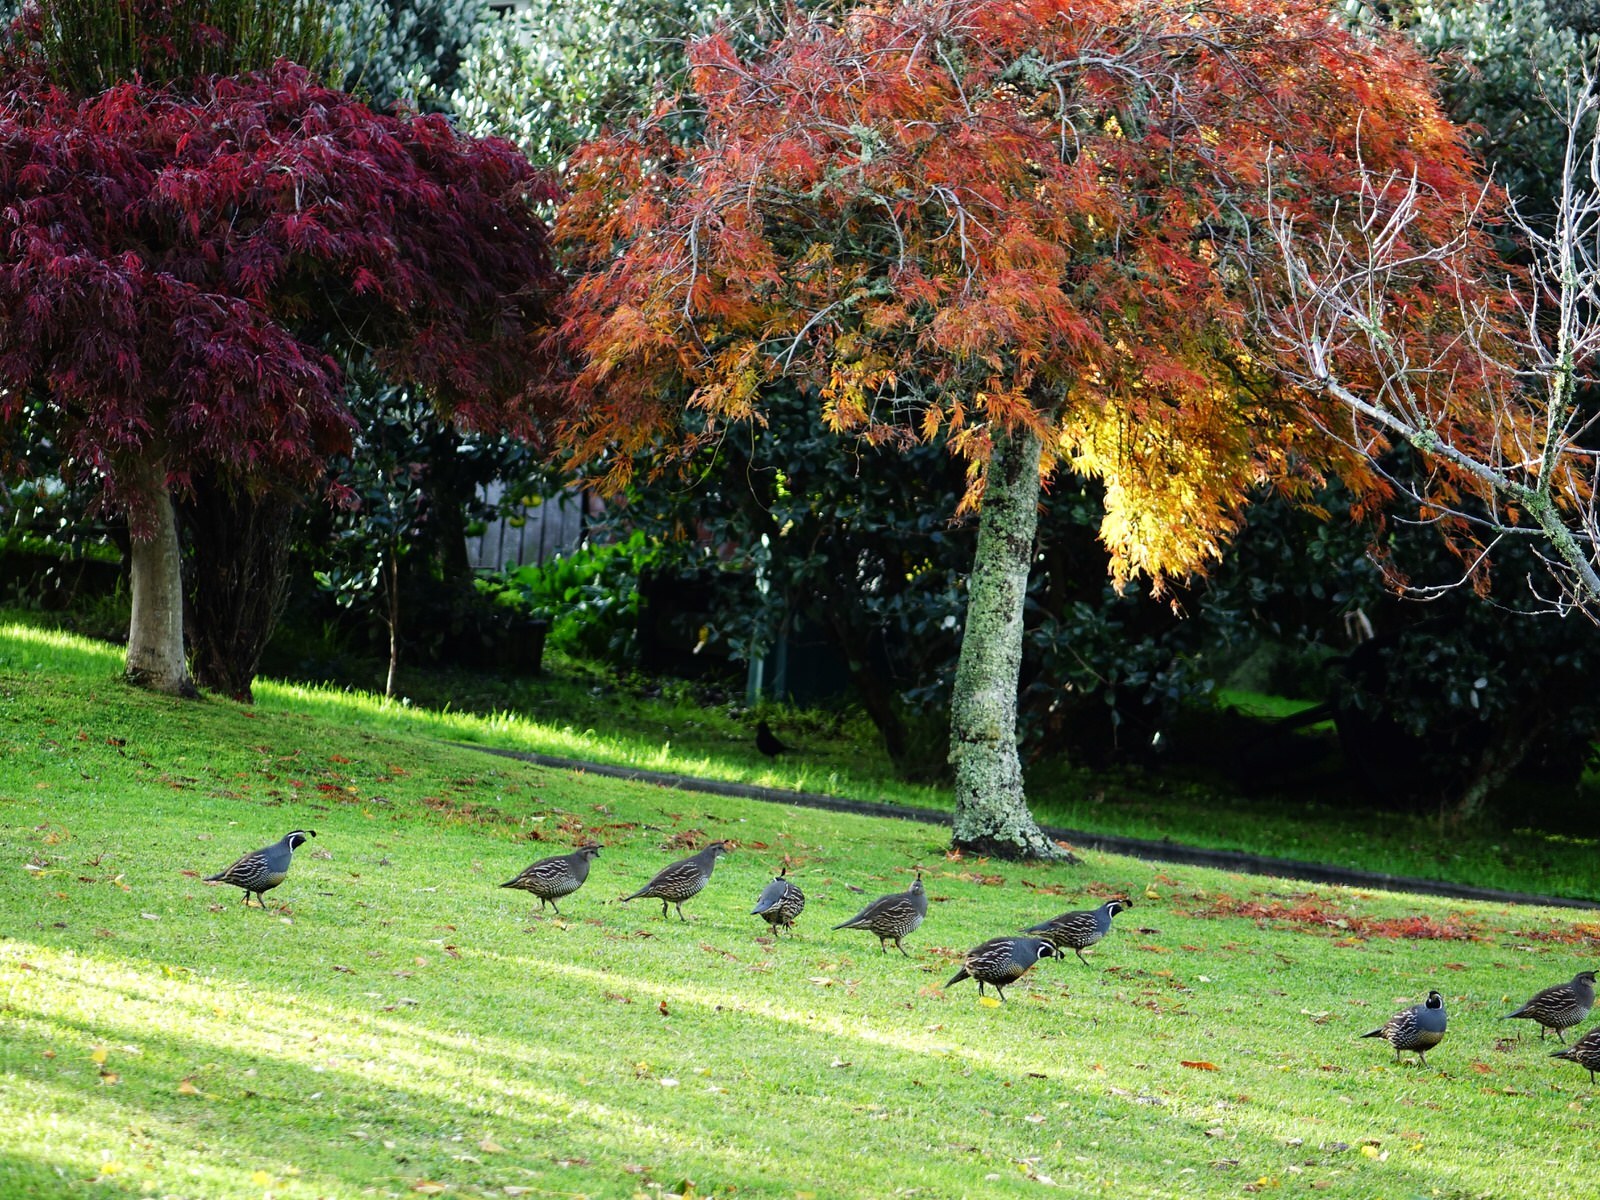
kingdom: Animalia
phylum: Chordata
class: Aves
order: Galliformes
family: Odontophoridae
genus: Callipepla
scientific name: Callipepla californica
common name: California quail
